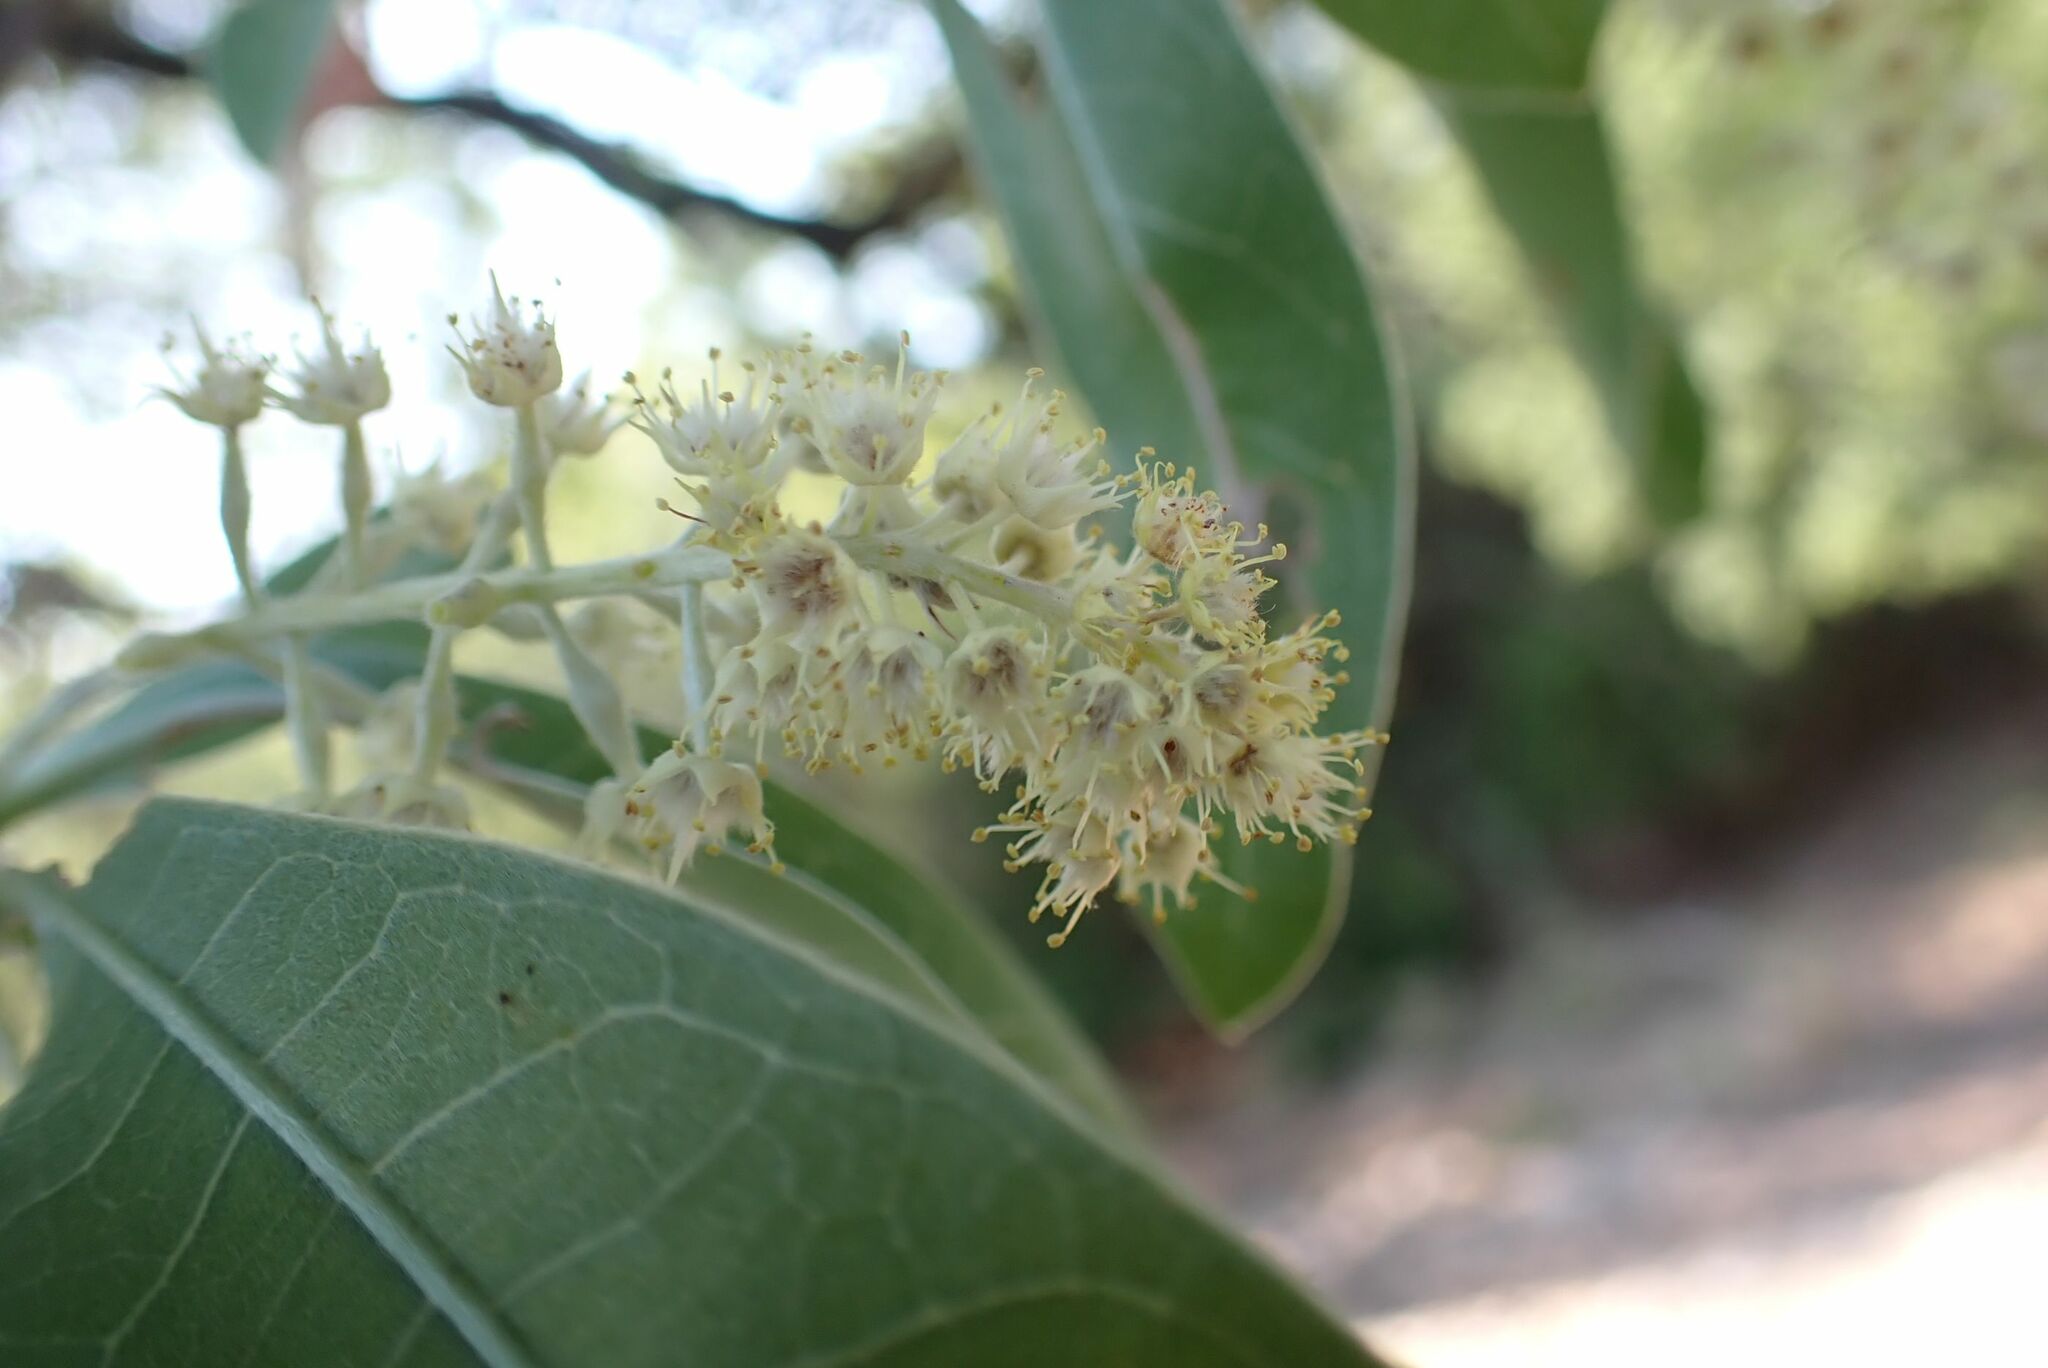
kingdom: Plantae
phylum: Tracheophyta
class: Magnoliopsida
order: Myrtales
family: Combretaceae
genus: Terminalia
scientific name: Terminalia sericea
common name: Clusterleaf
